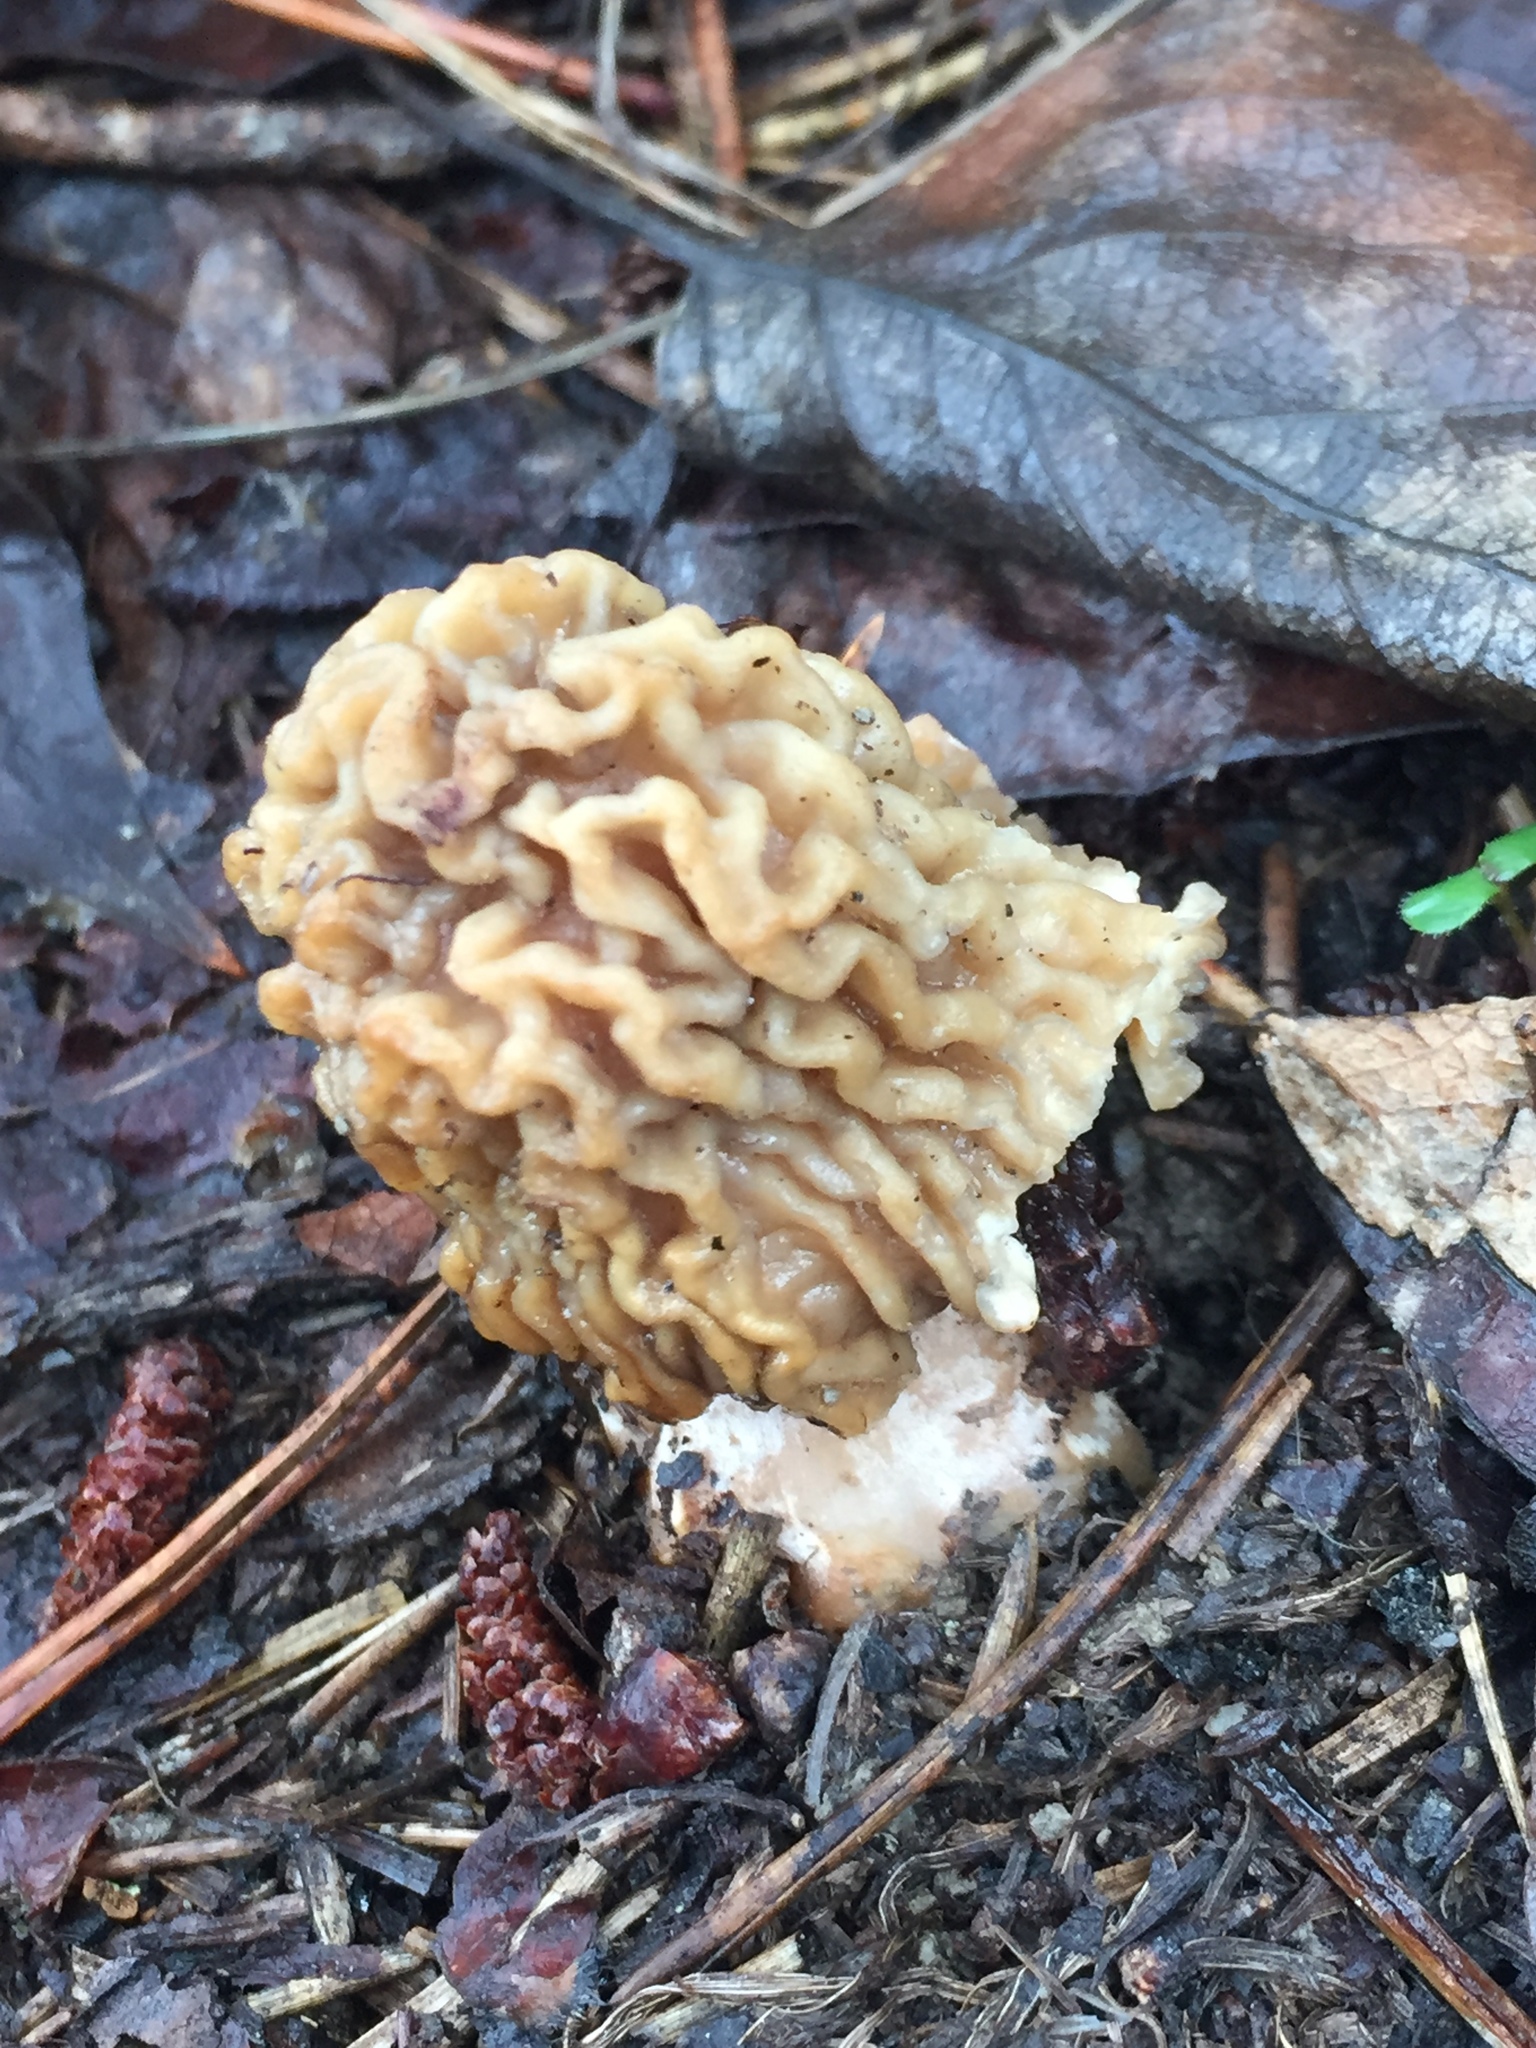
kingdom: Fungi
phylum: Ascomycota
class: Pezizomycetes
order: Pezizales
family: Morchellaceae
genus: Verpa
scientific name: Verpa bohemica
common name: Wrinkled thimble morel
